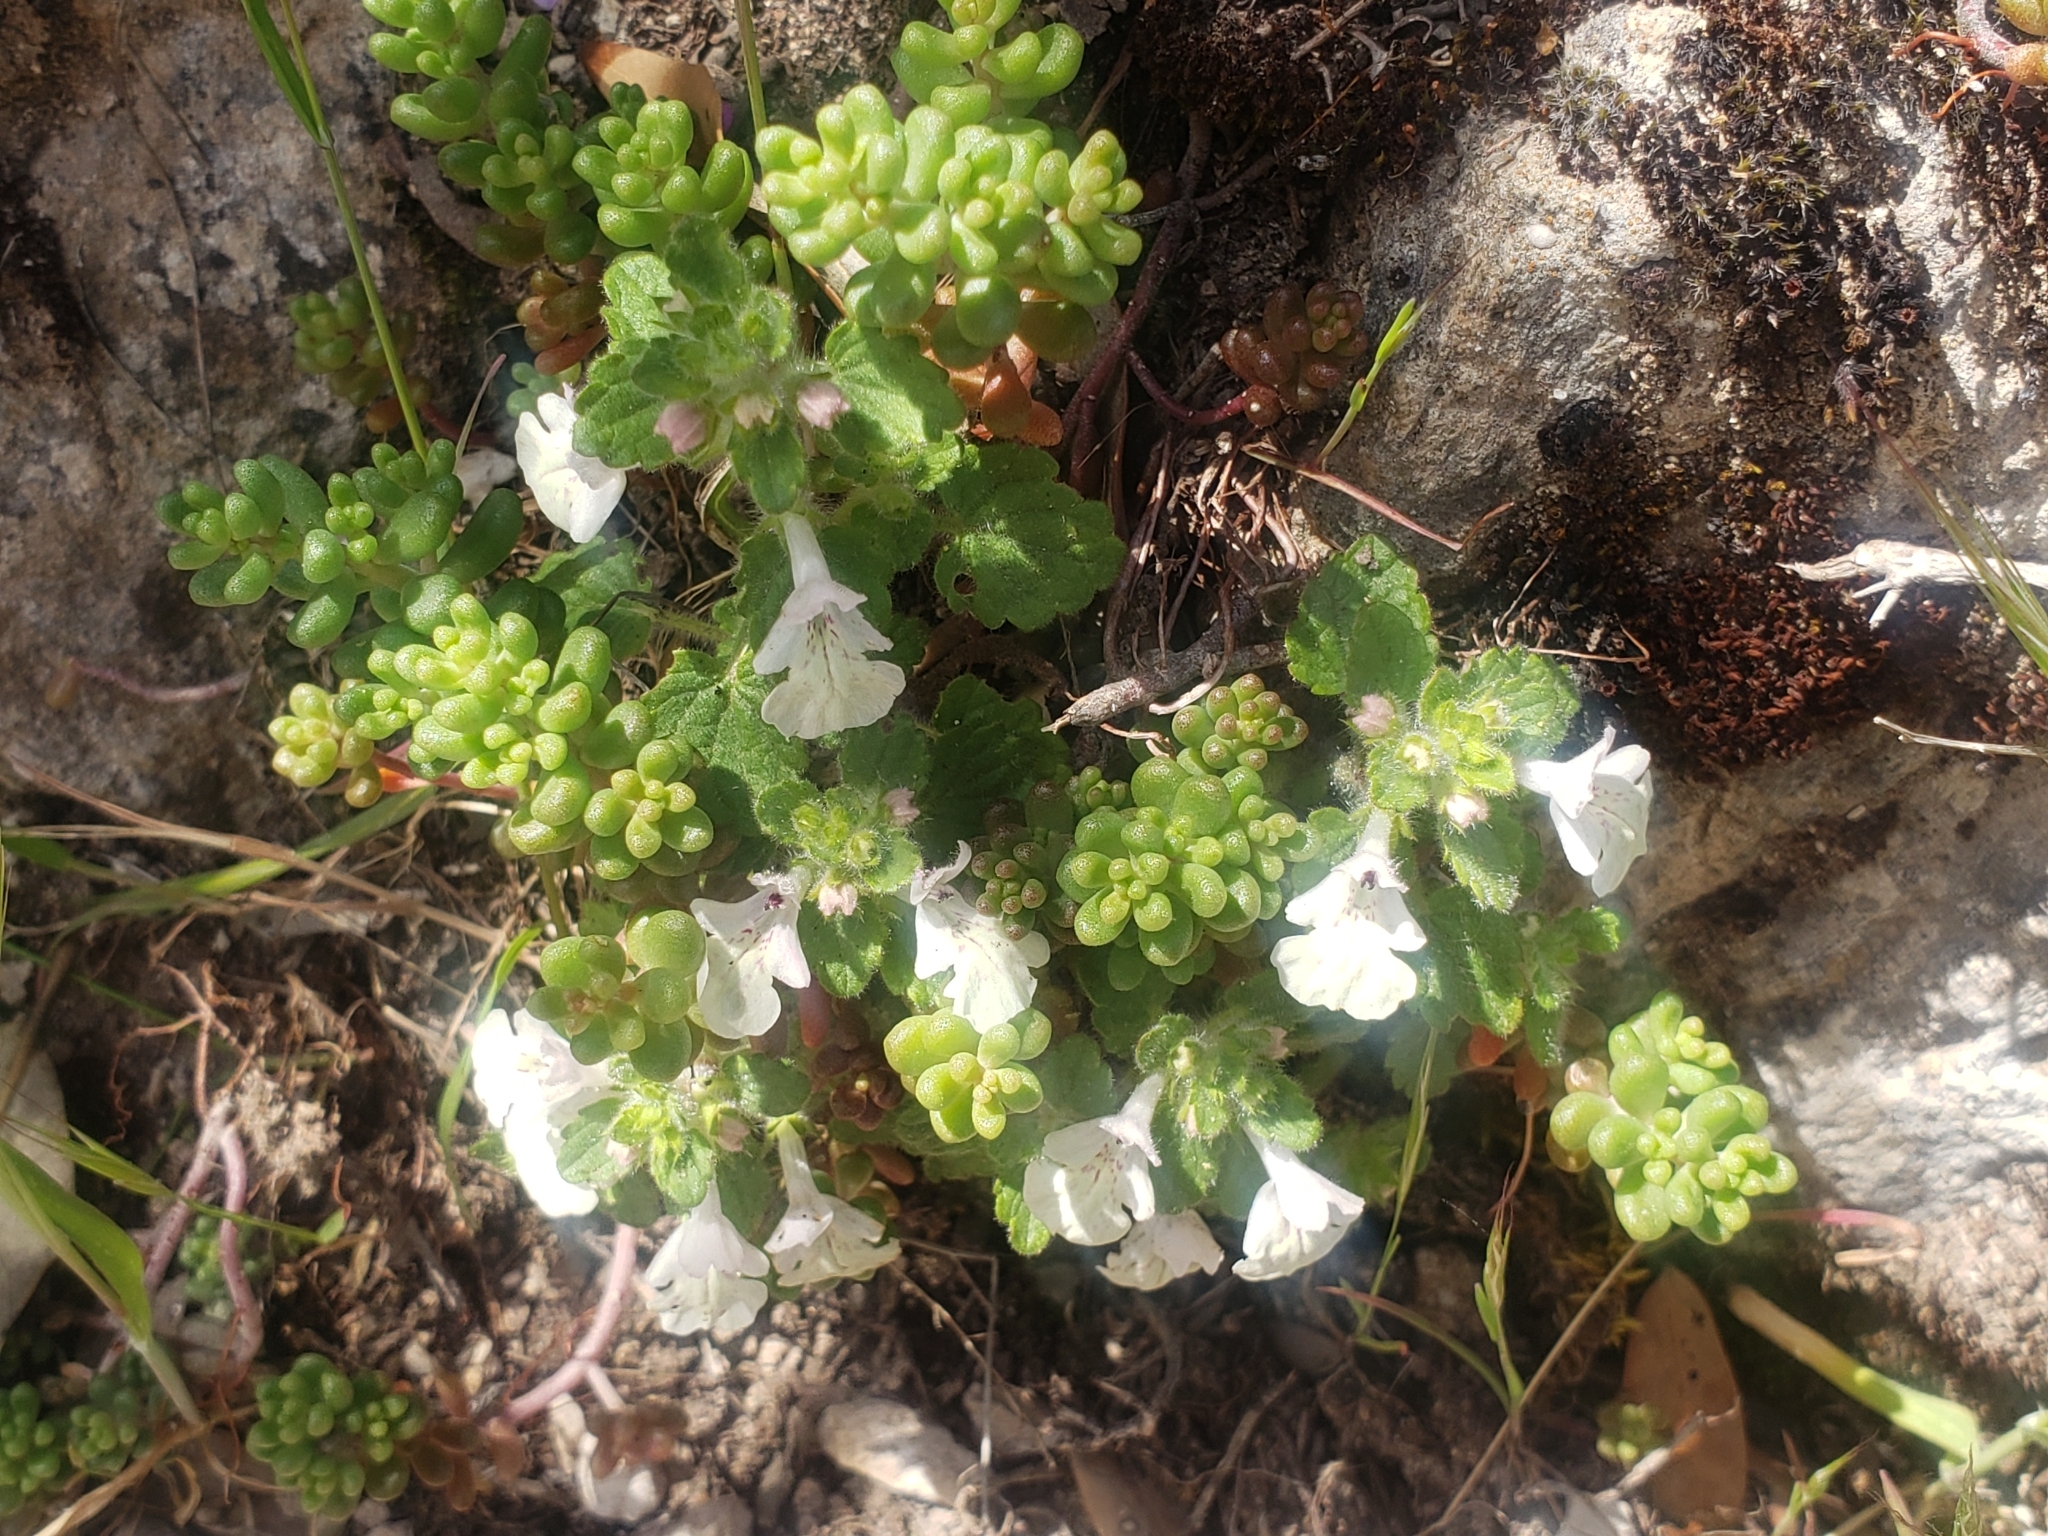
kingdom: Plantae
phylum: Tracheophyta
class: Magnoliopsida
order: Lamiales
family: Lamiaceae
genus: Prasium
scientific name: Prasium majus
